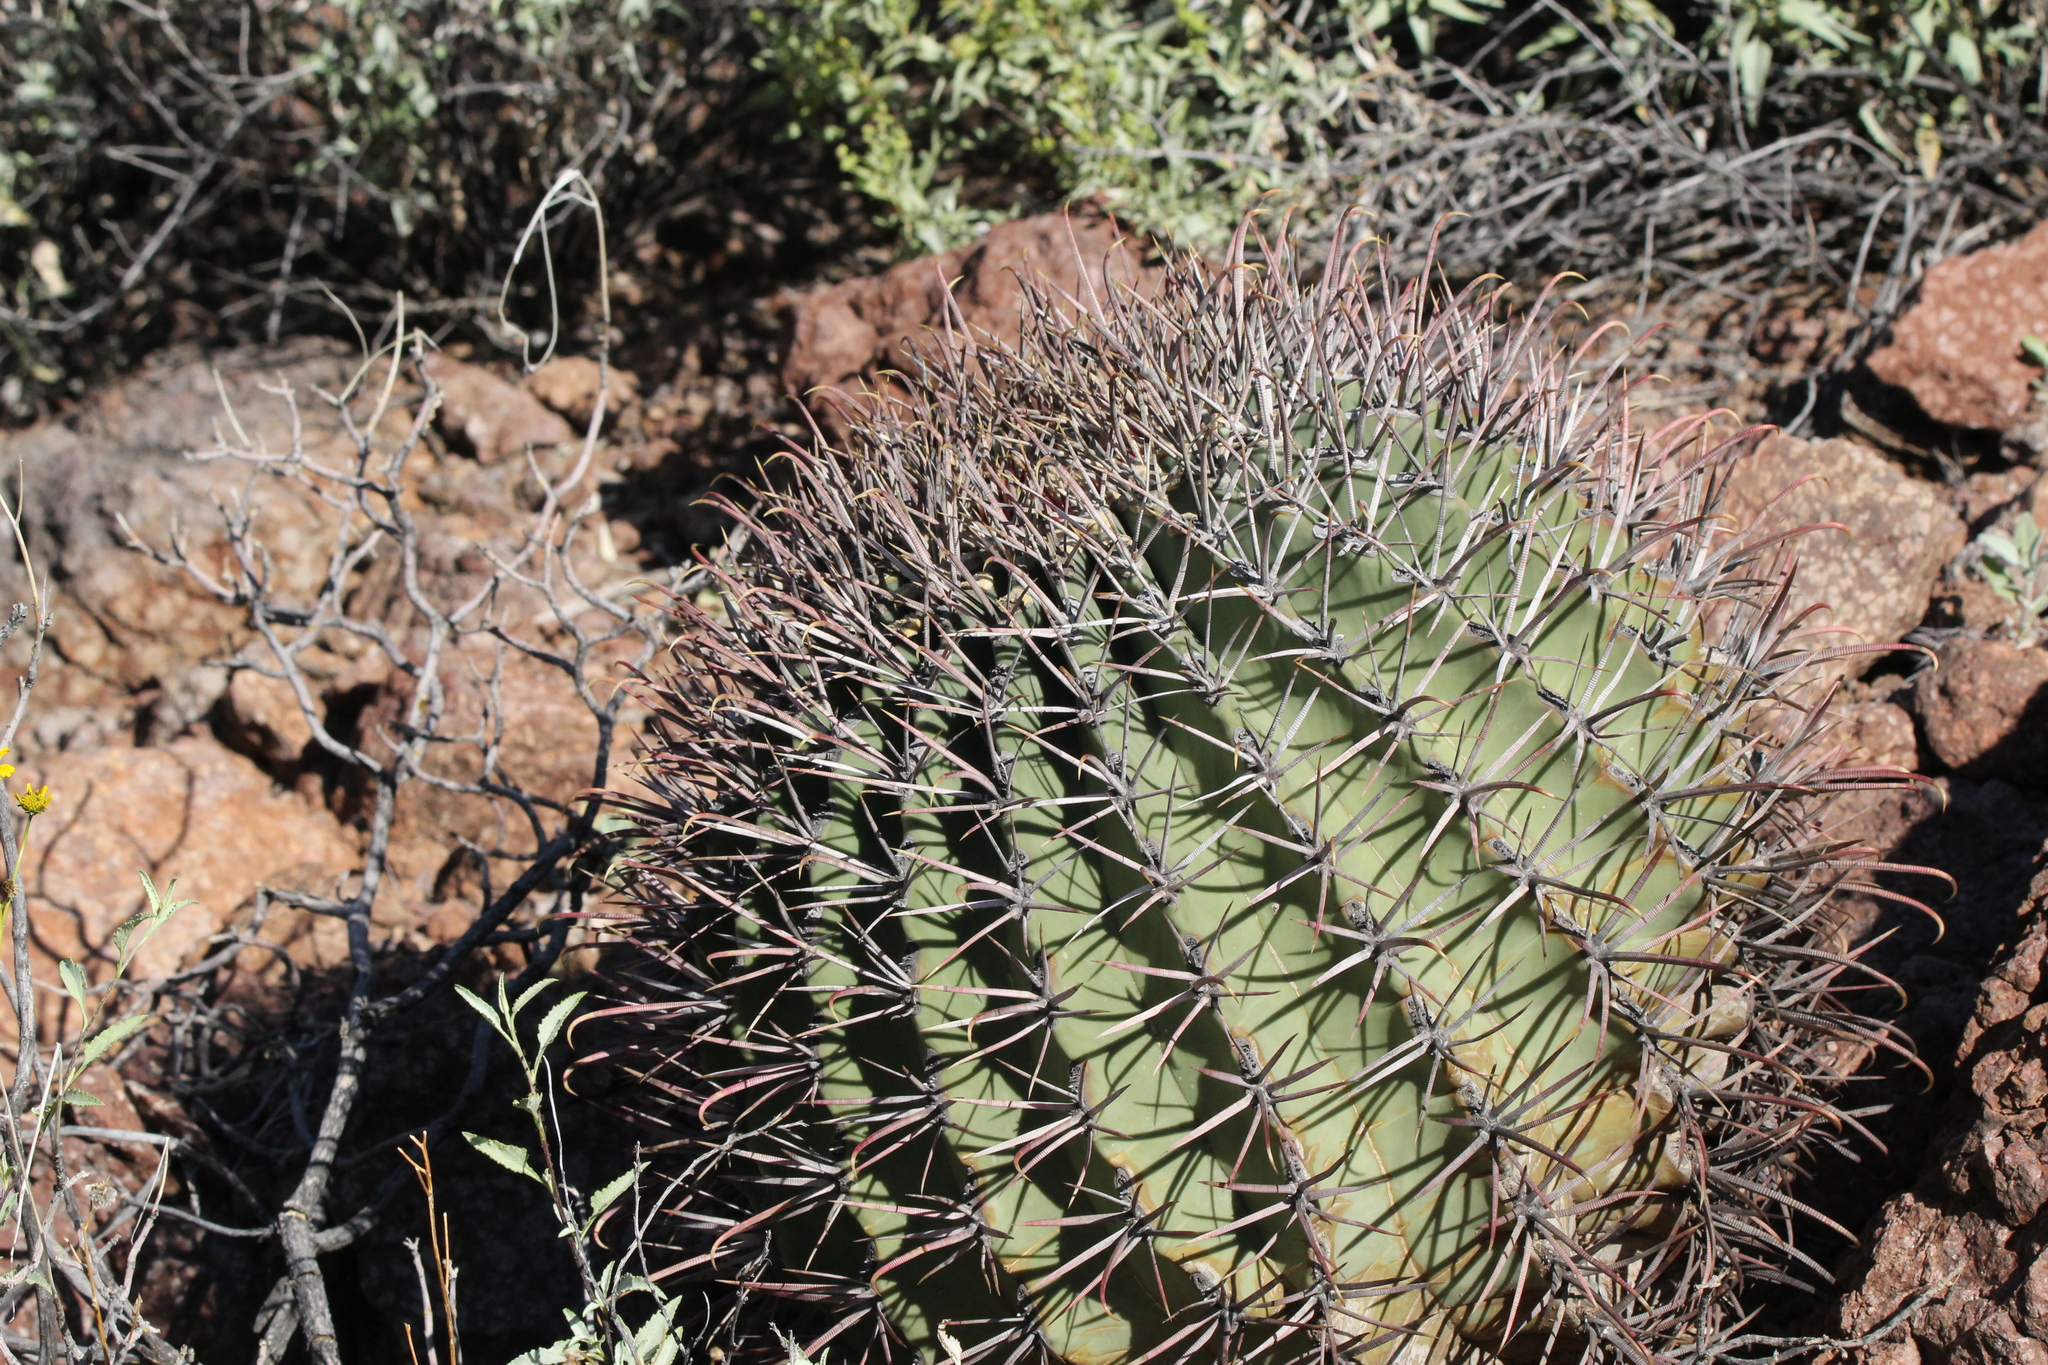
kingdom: Plantae
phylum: Tracheophyta
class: Magnoliopsida
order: Caryophyllales
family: Cactaceae
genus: Ferocactus
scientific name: Ferocactus emoryi
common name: Emory's barrel cactus
